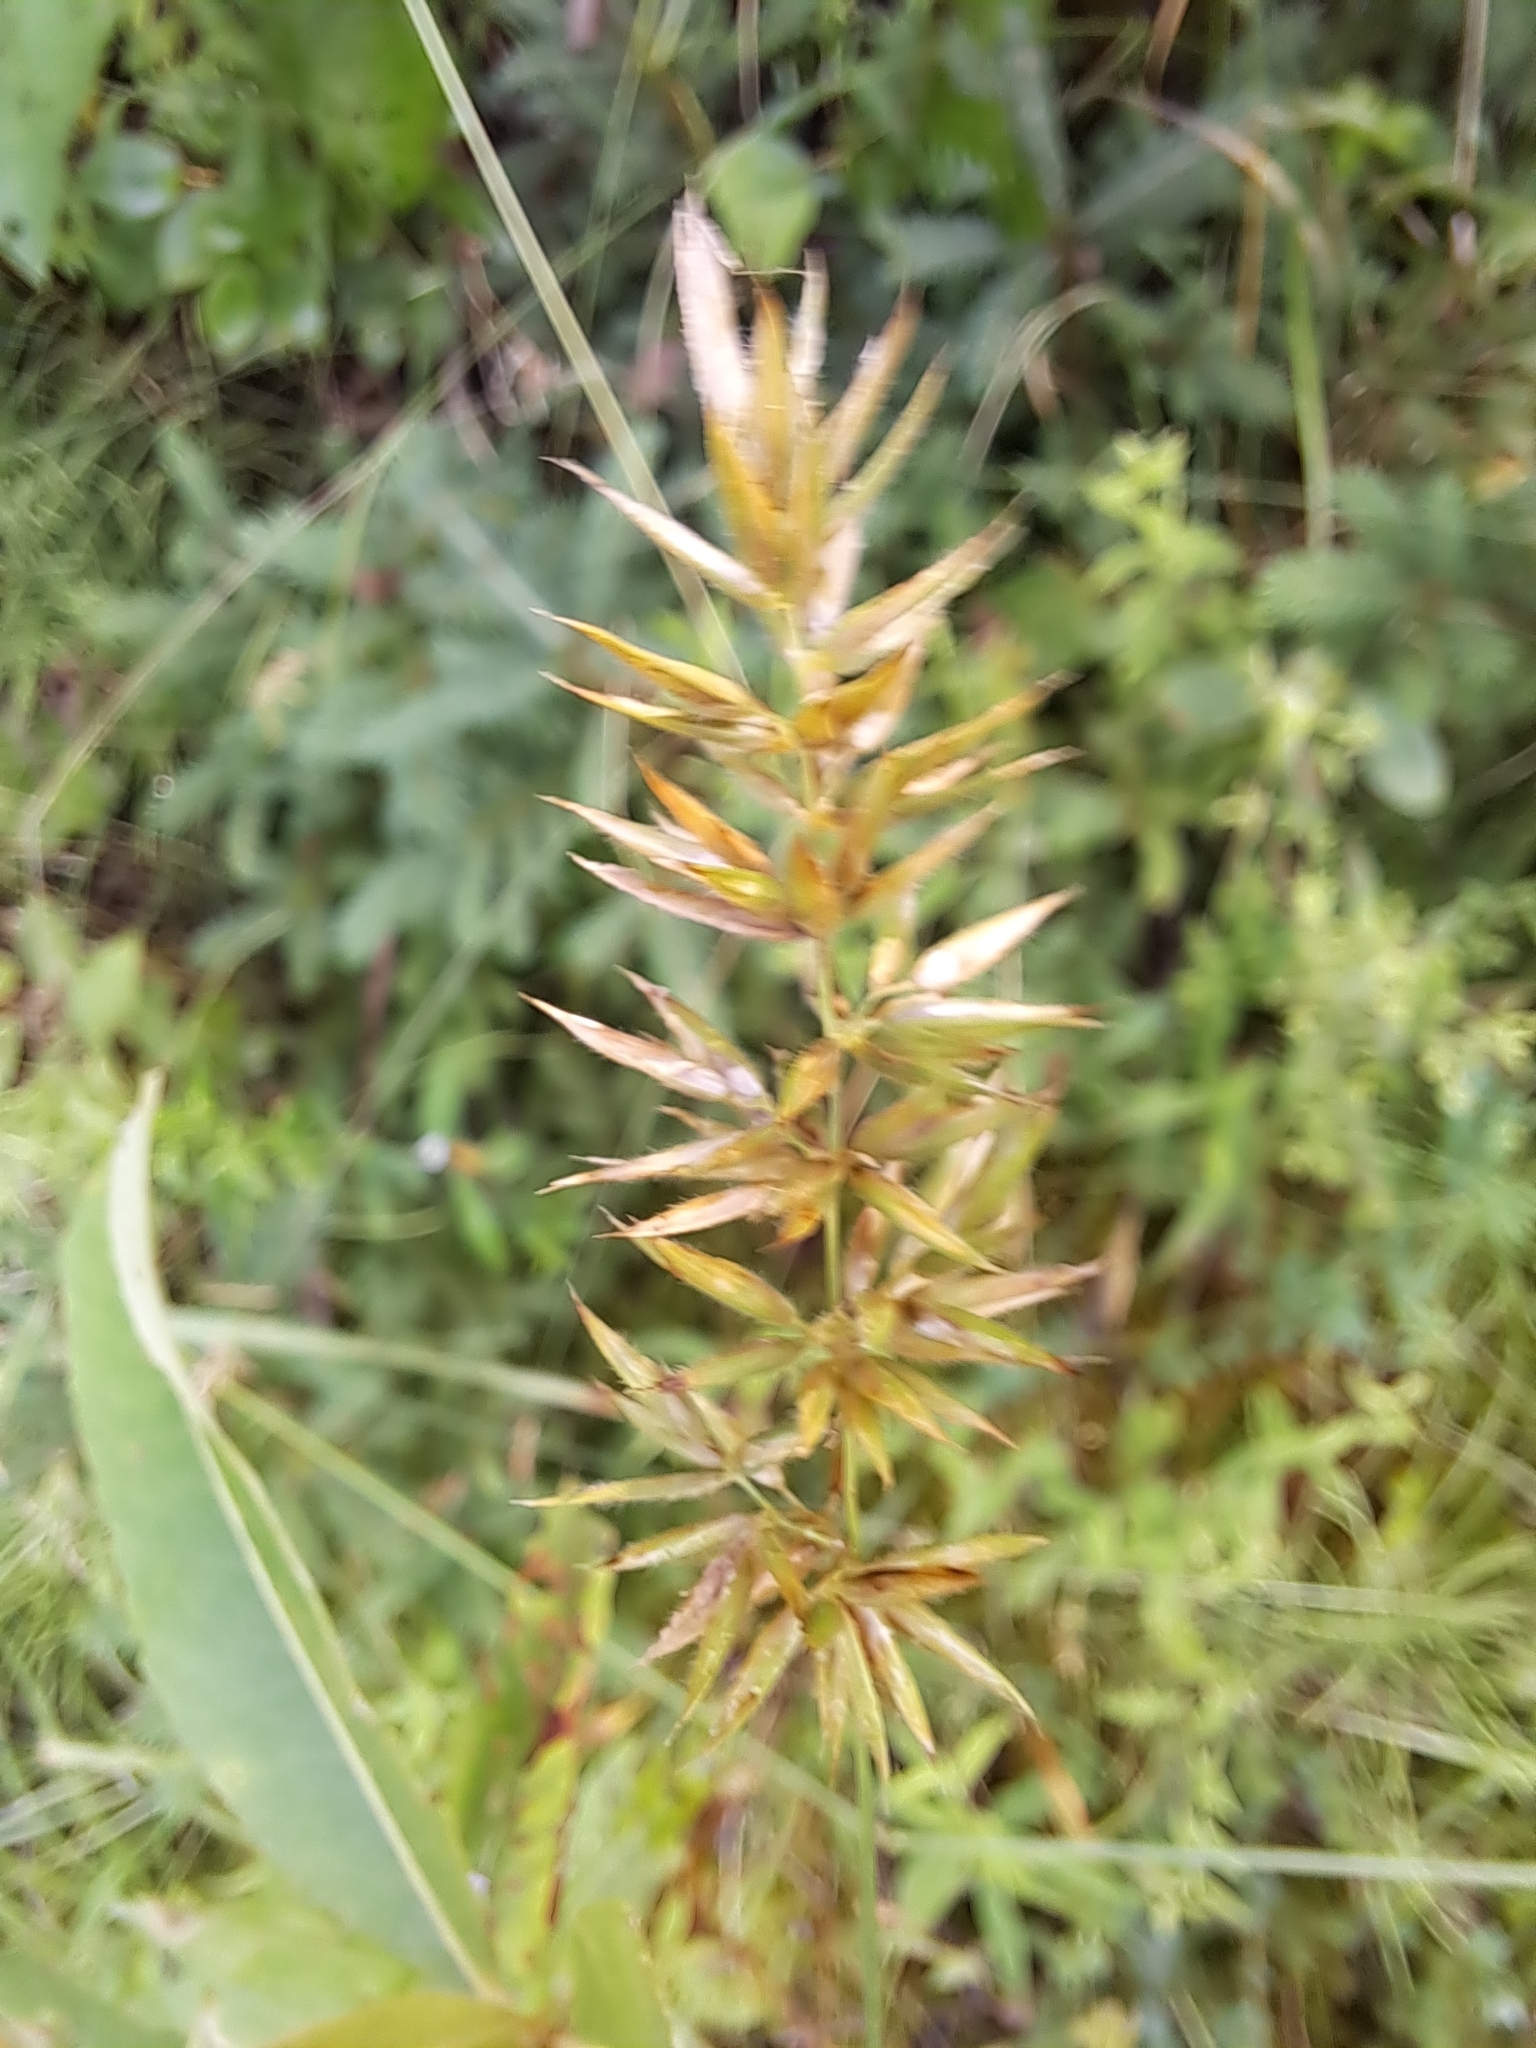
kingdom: Plantae
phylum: Tracheophyta
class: Liliopsida
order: Poales
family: Poaceae
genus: Anthoxanthum
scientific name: Anthoxanthum odoratum
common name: Sweet vernalgrass
